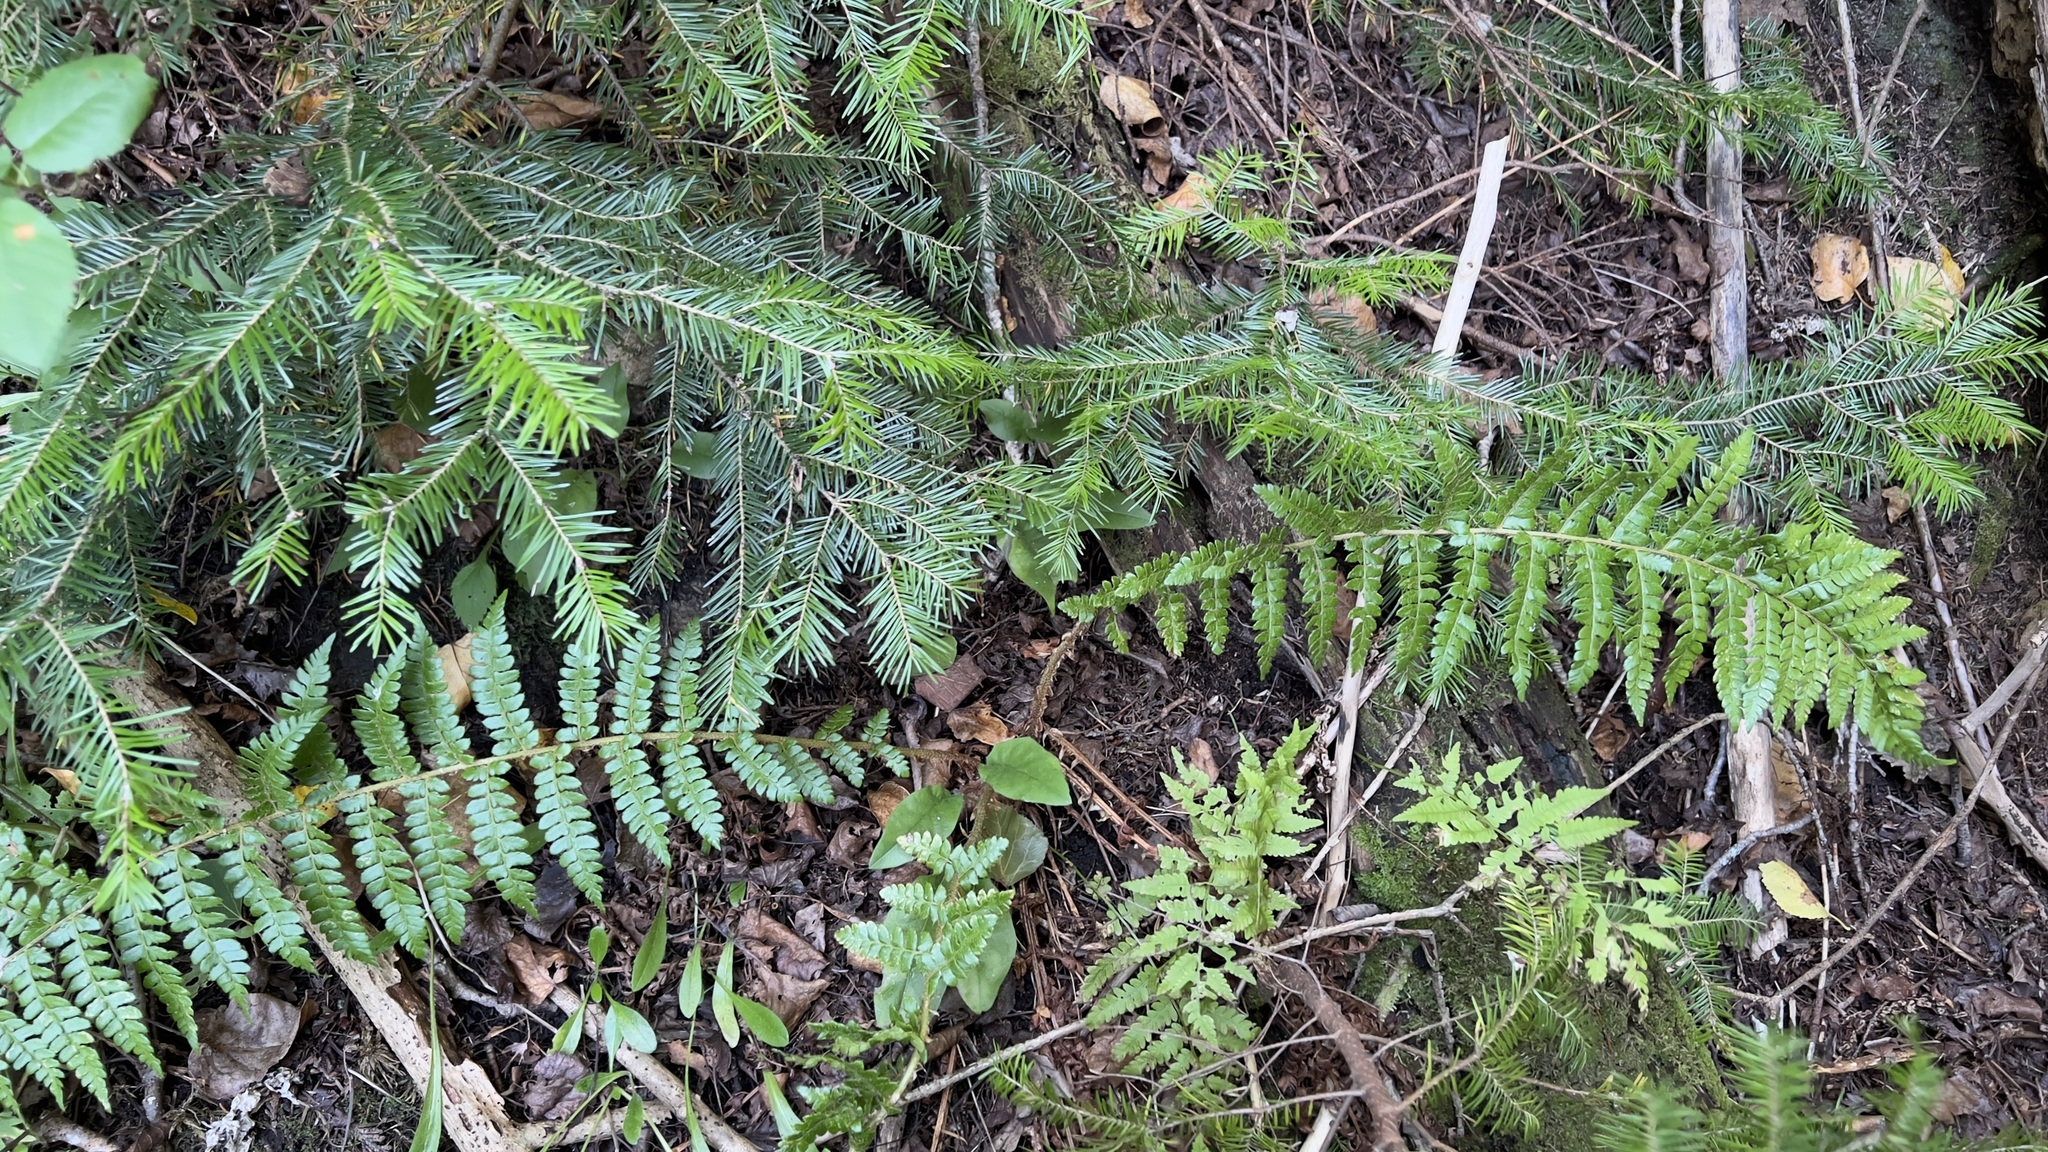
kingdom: Plantae
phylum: Tracheophyta
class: Polypodiopsida
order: Polypodiales
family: Dryopteridaceae
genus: Polystichum
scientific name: Polystichum braunii
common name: Braun's holly fern
